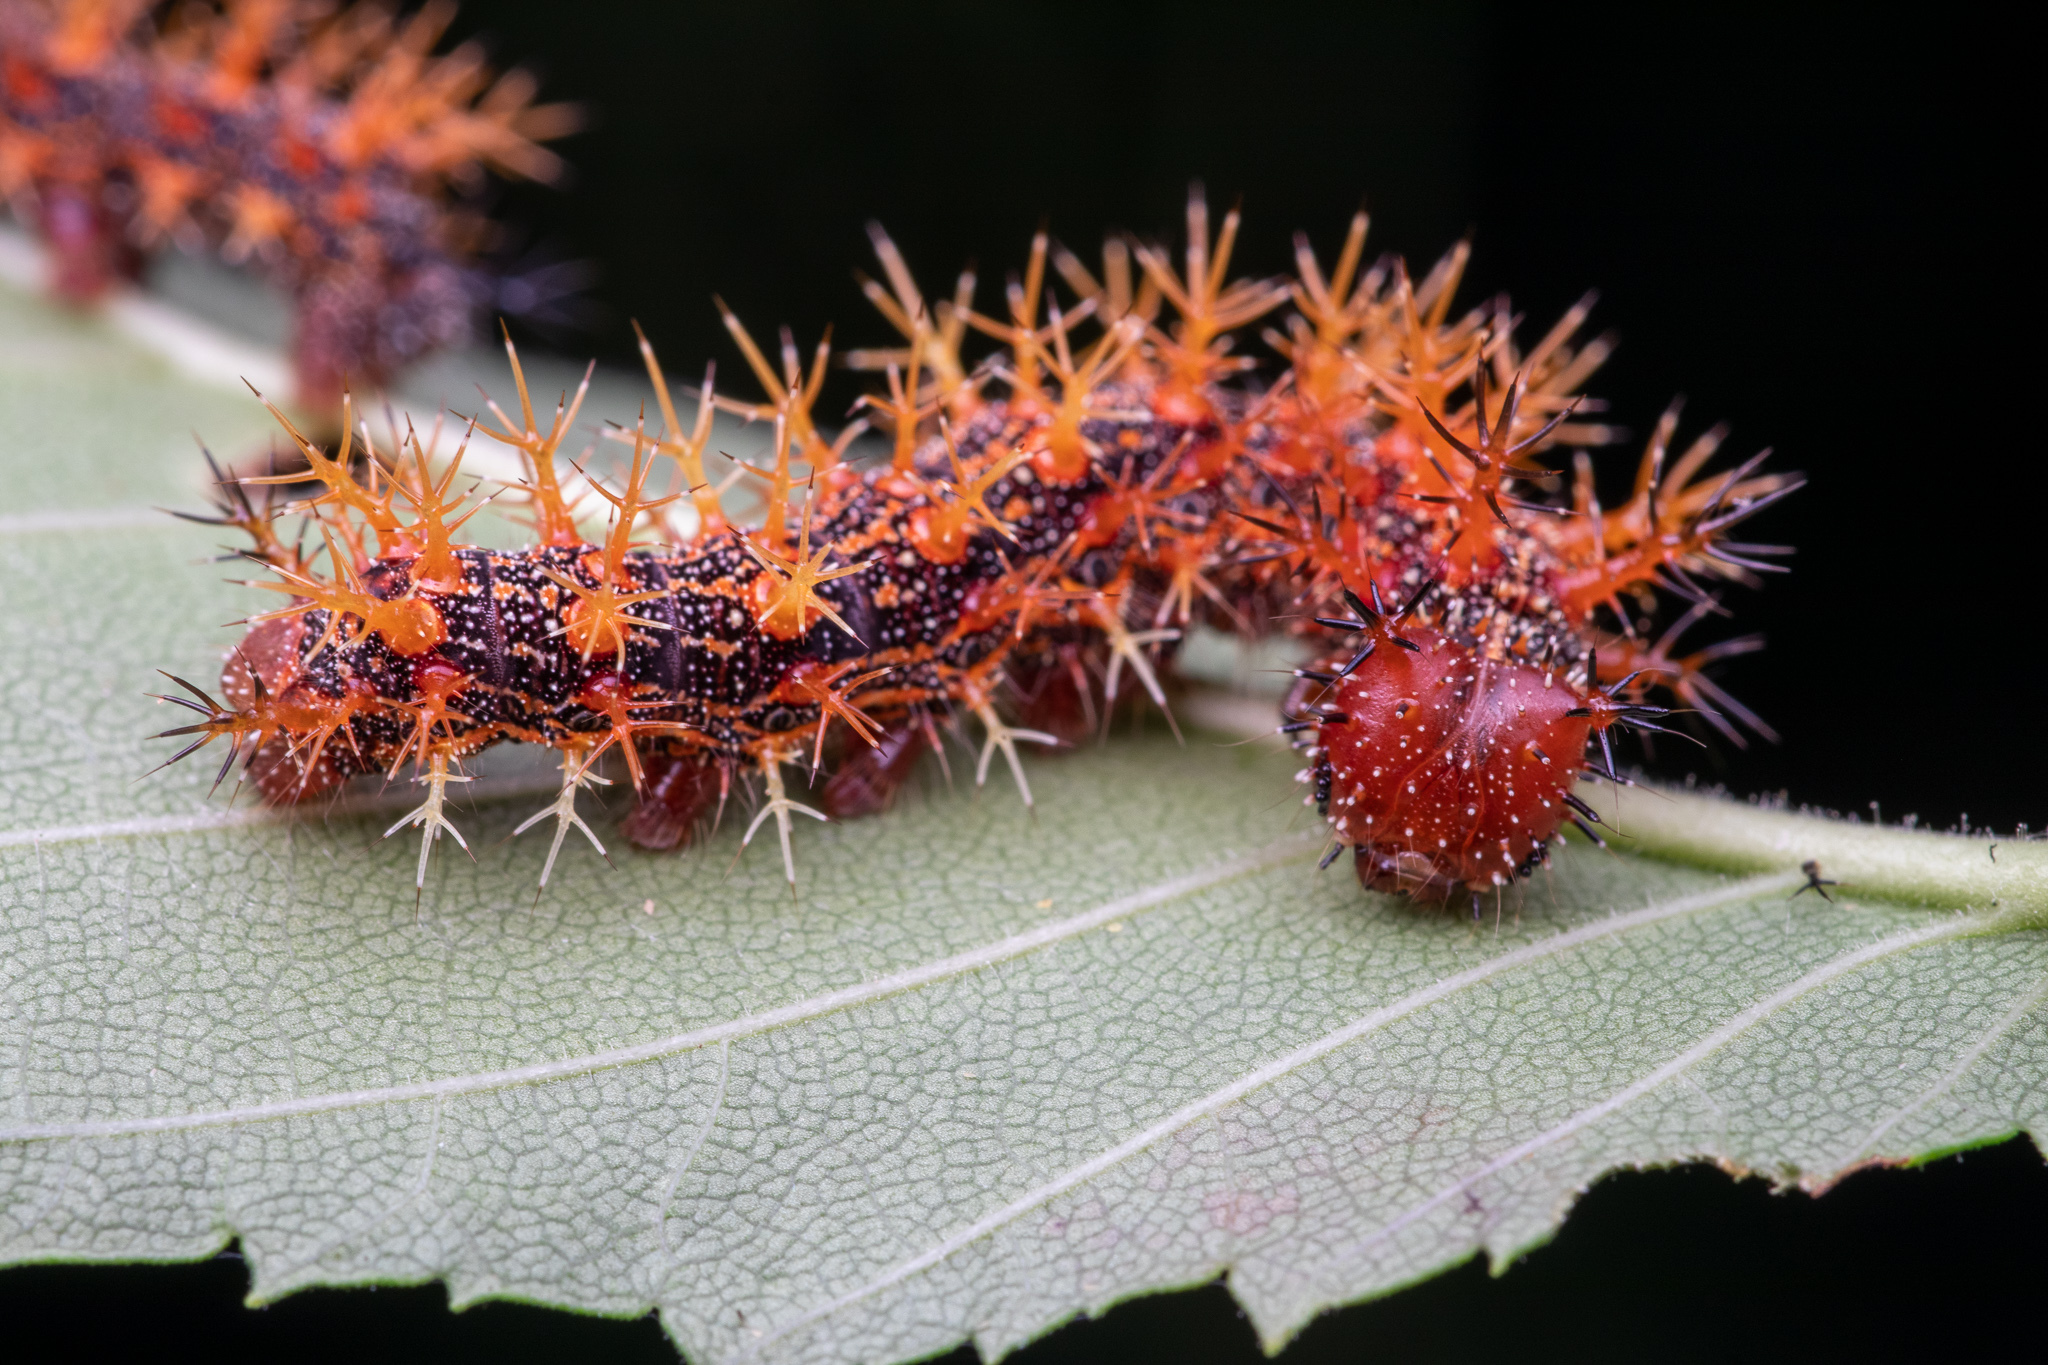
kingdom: Animalia
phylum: Arthropoda
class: Insecta
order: Lepidoptera
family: Nymphalidae
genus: Polygonia
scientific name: Polygonia interrogationis
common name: Question mark
